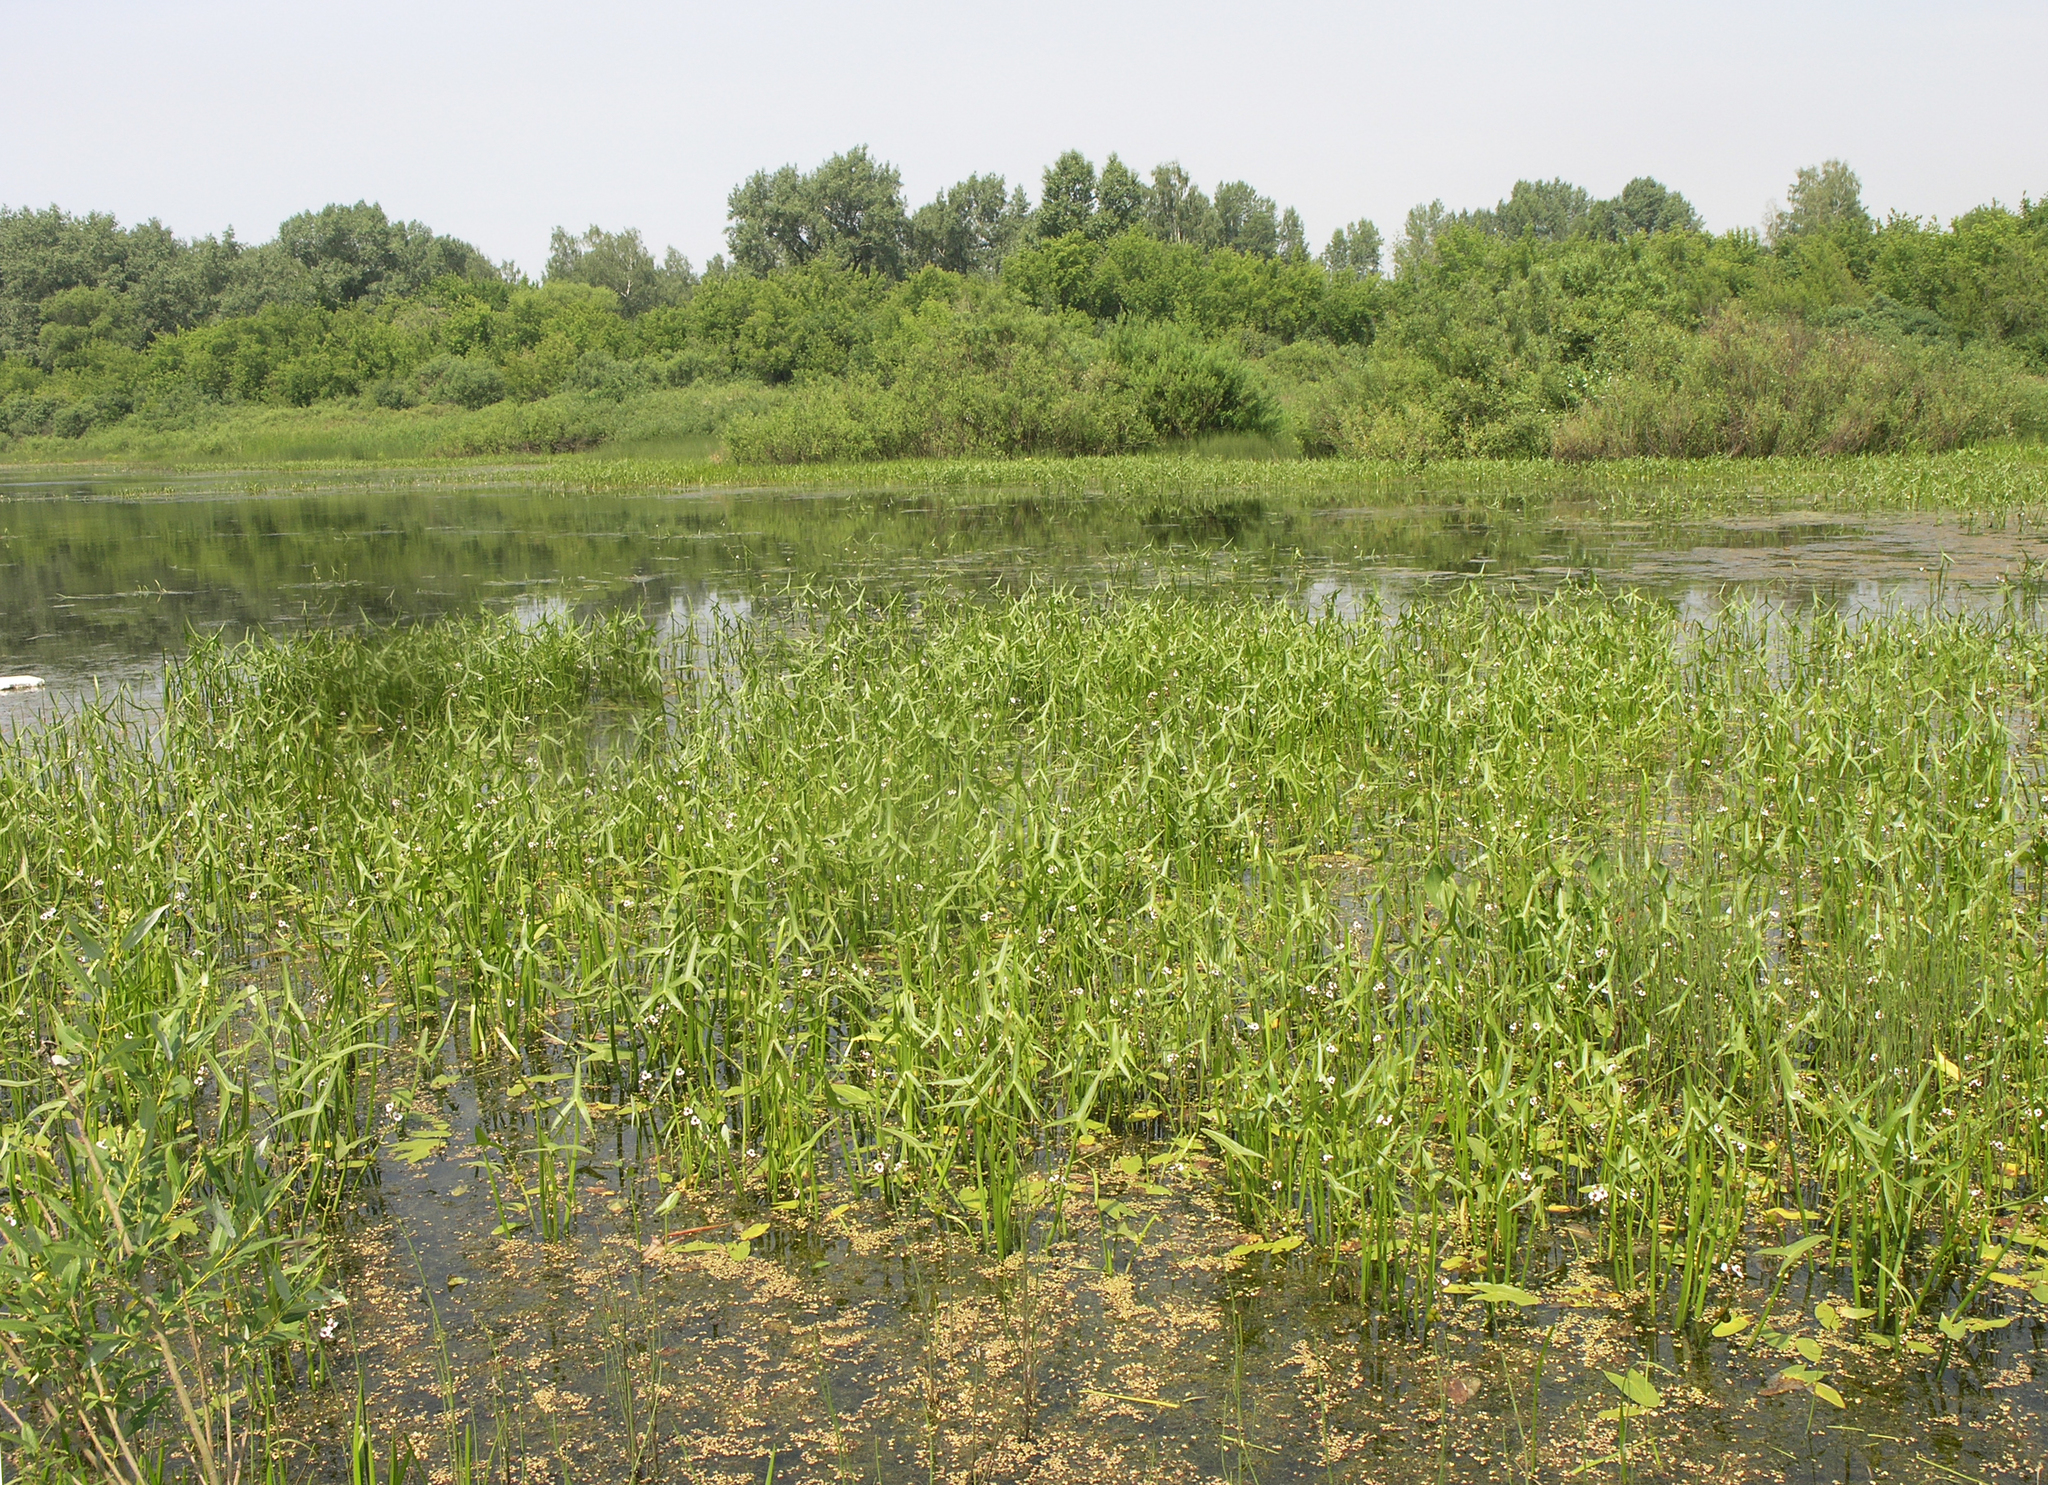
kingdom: Plantae
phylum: Tracheophyta
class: Liliopsida
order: Alismatales
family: Alismataceae
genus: Sagittaria
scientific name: Sagittaria sagittifolia
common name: Arrowhead
